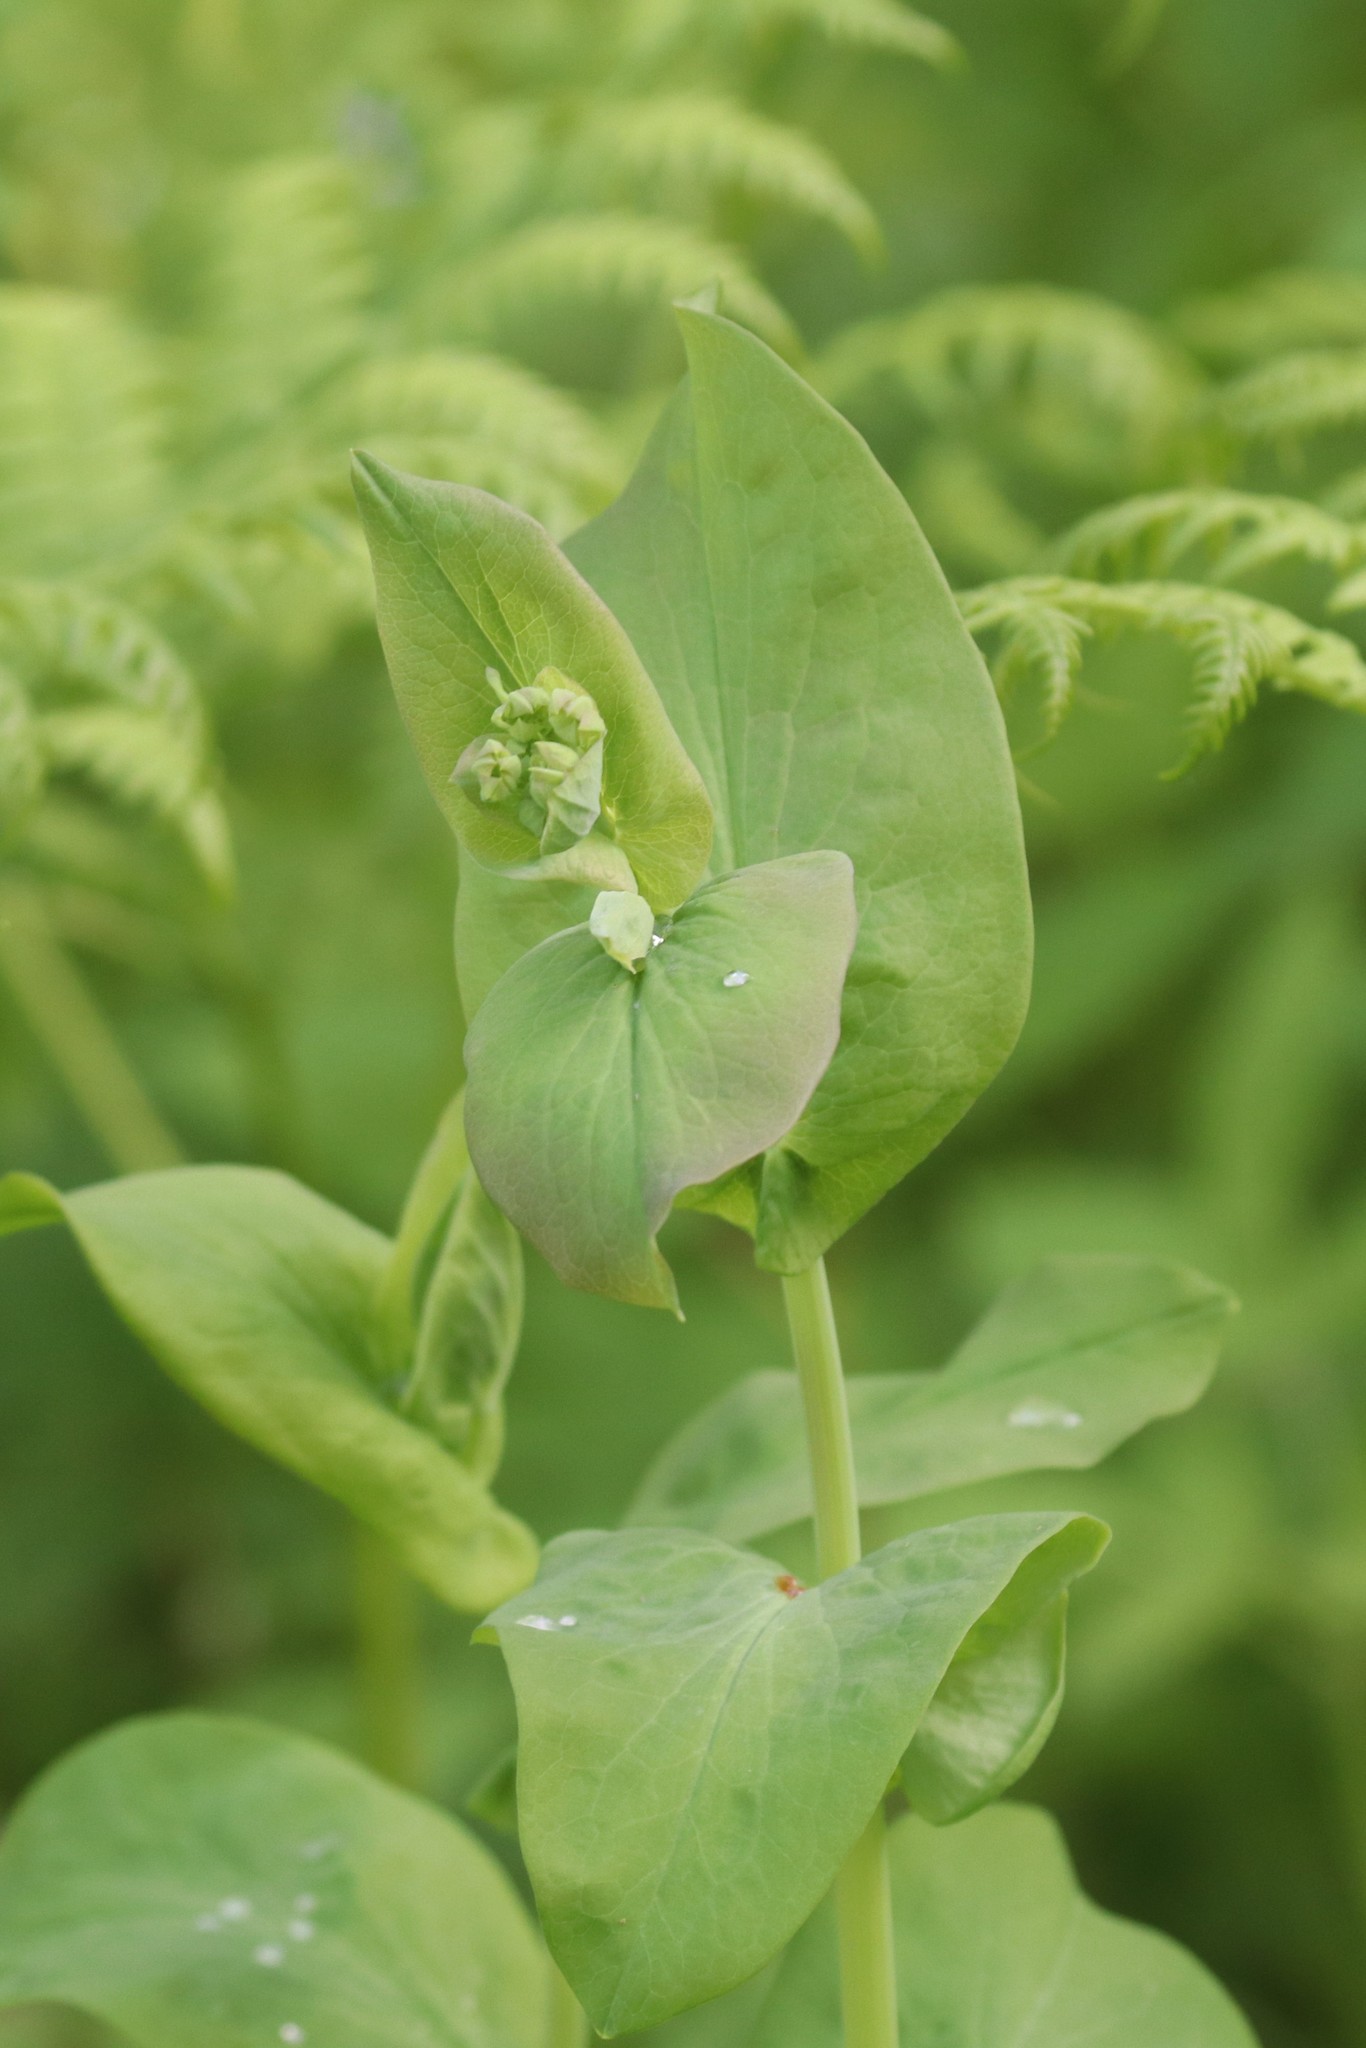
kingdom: Plantae
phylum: Tracheophyta
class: Magnoliopsida
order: Apiales
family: Apiaceae
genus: Bupleurum
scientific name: Bupleurum aureum
